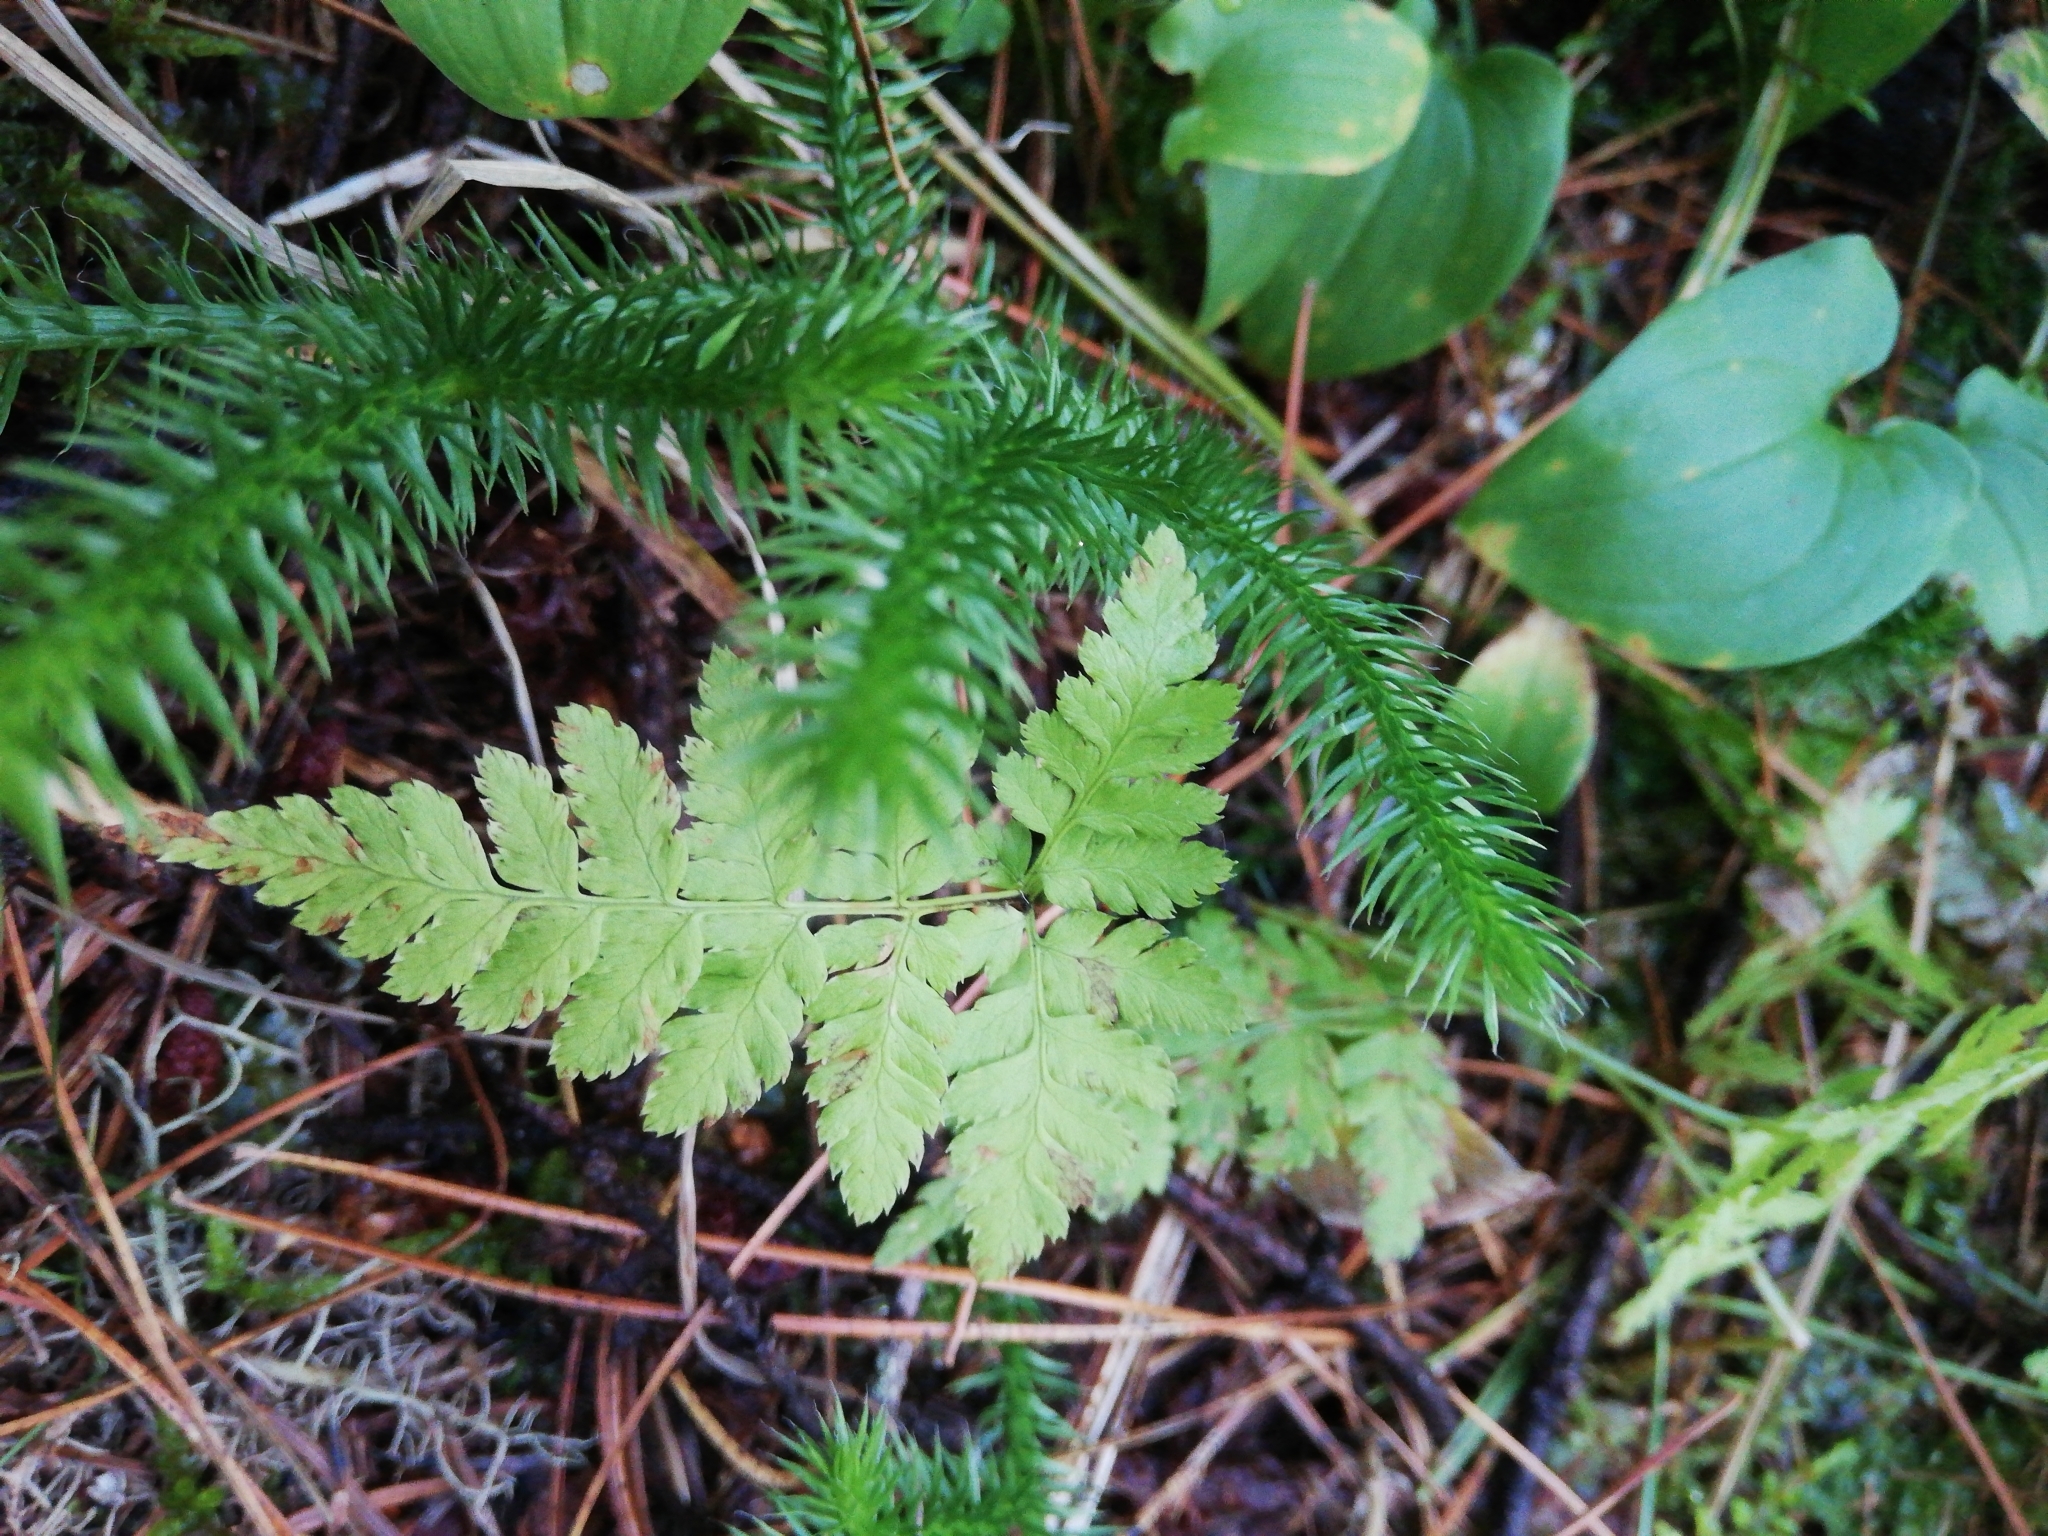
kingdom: Plantae
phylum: Tracheophyta
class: Lycopodiopsida
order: Lycopodiales
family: Lycopodiaceae
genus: Lycopodium
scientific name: Lycopodium clavatum
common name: Stag's-horn clubmoss
